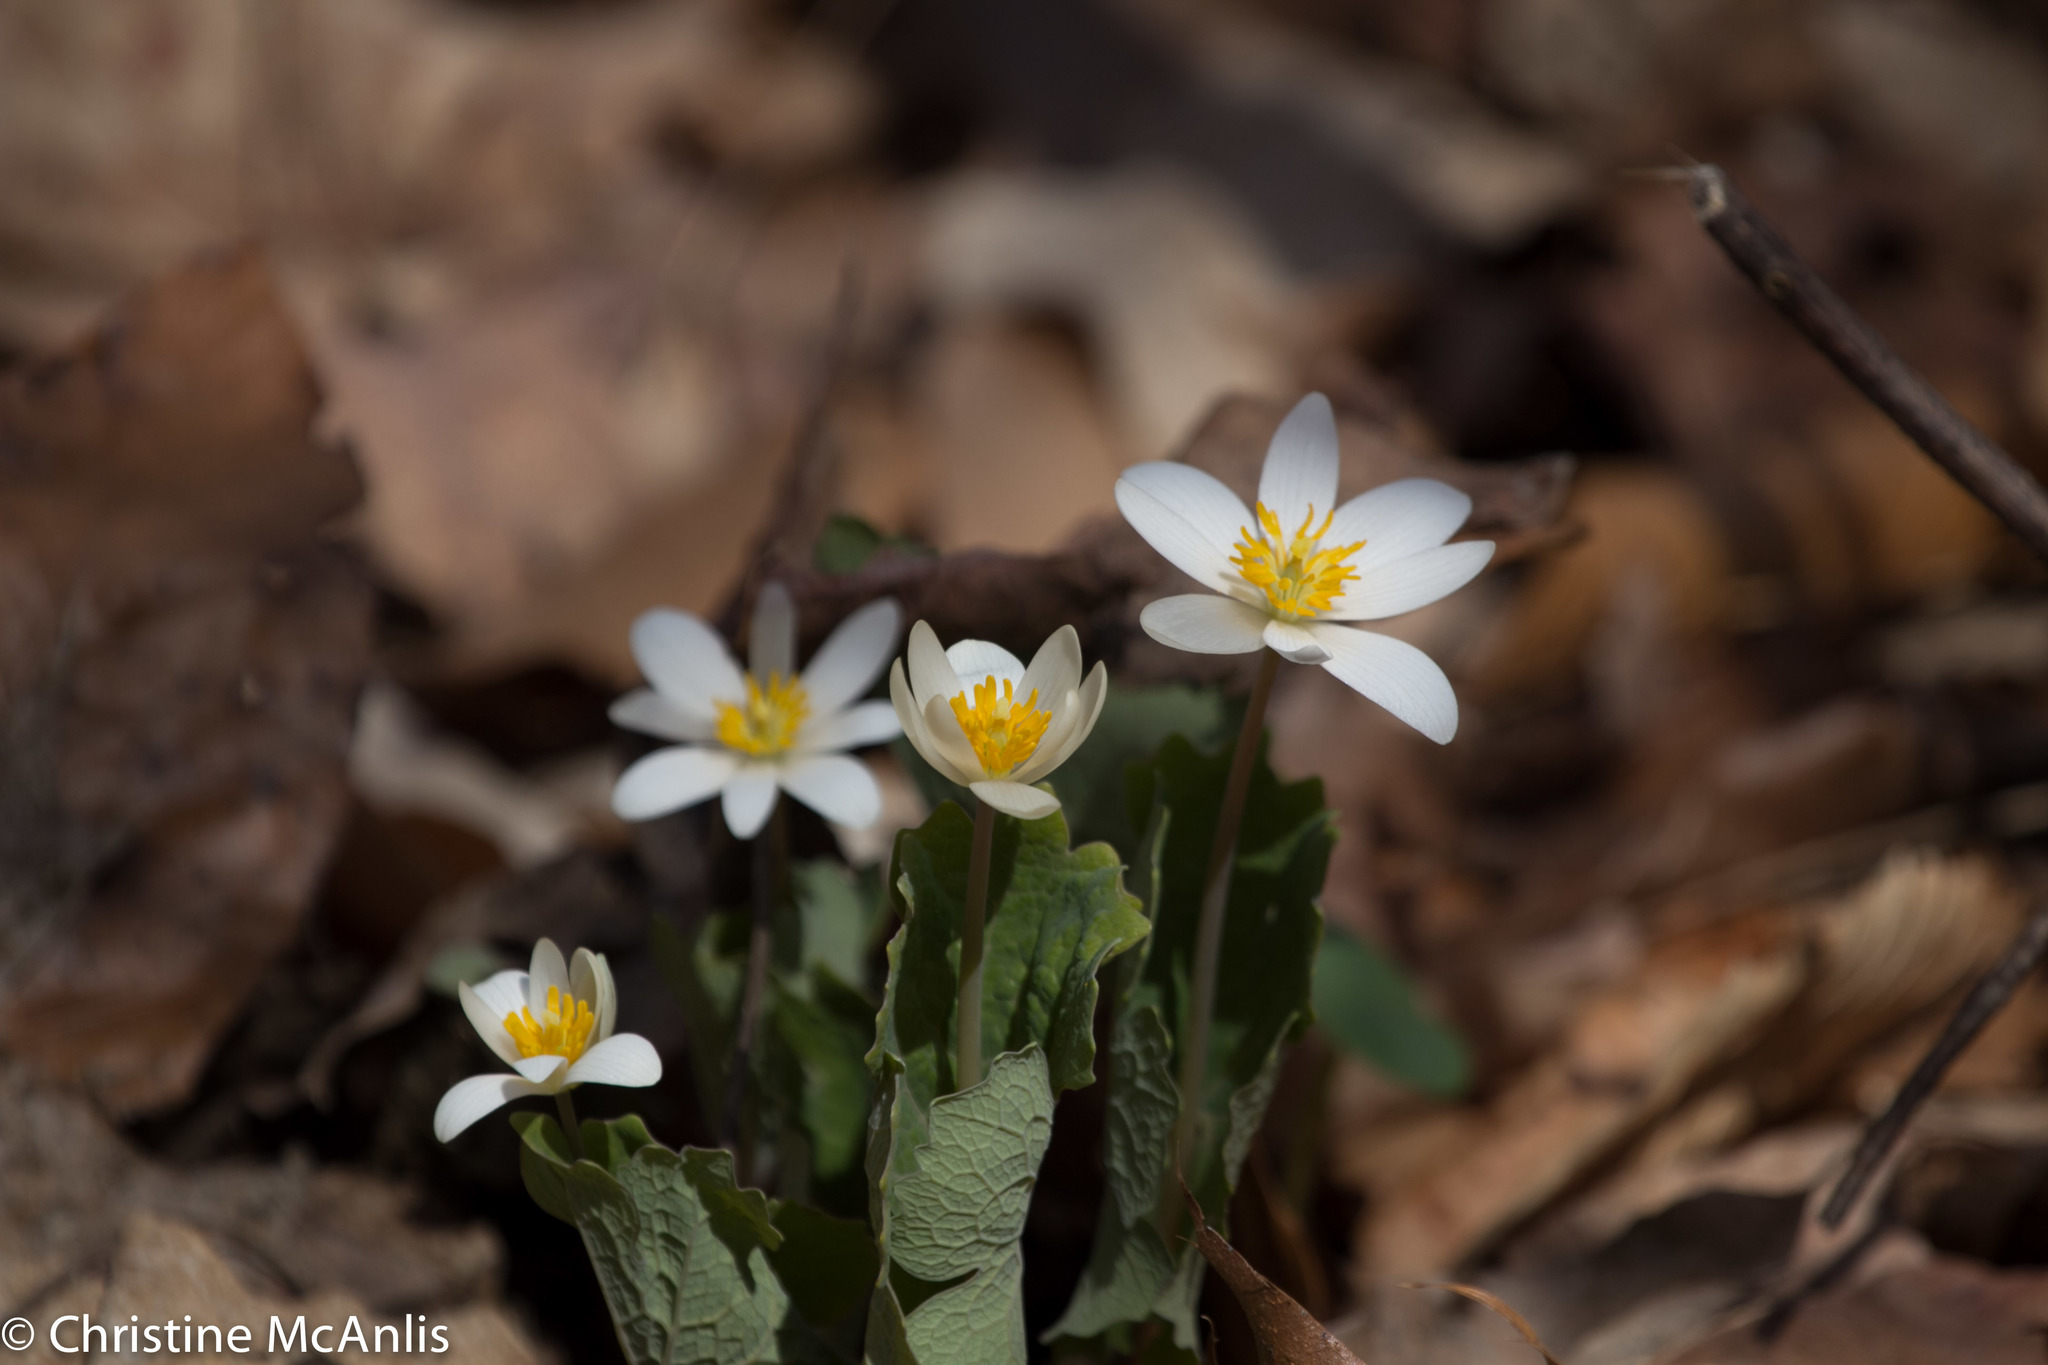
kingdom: Plantae
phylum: Tracheophyta
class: Magnoliopsida
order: Ranunculales
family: Papaveraceae
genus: Sanguinaria
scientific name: Sanguinaria canadensis
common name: Bloodroot
